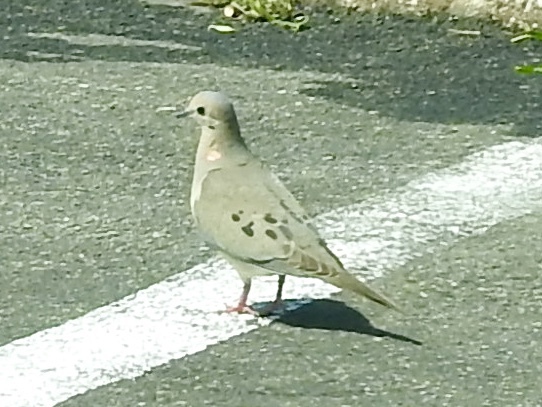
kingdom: Animalia
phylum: Chordata
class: Aves
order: Columbiformes
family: Columbidae
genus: Zenaida
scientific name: Zenaida macroura
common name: Mourning dove
